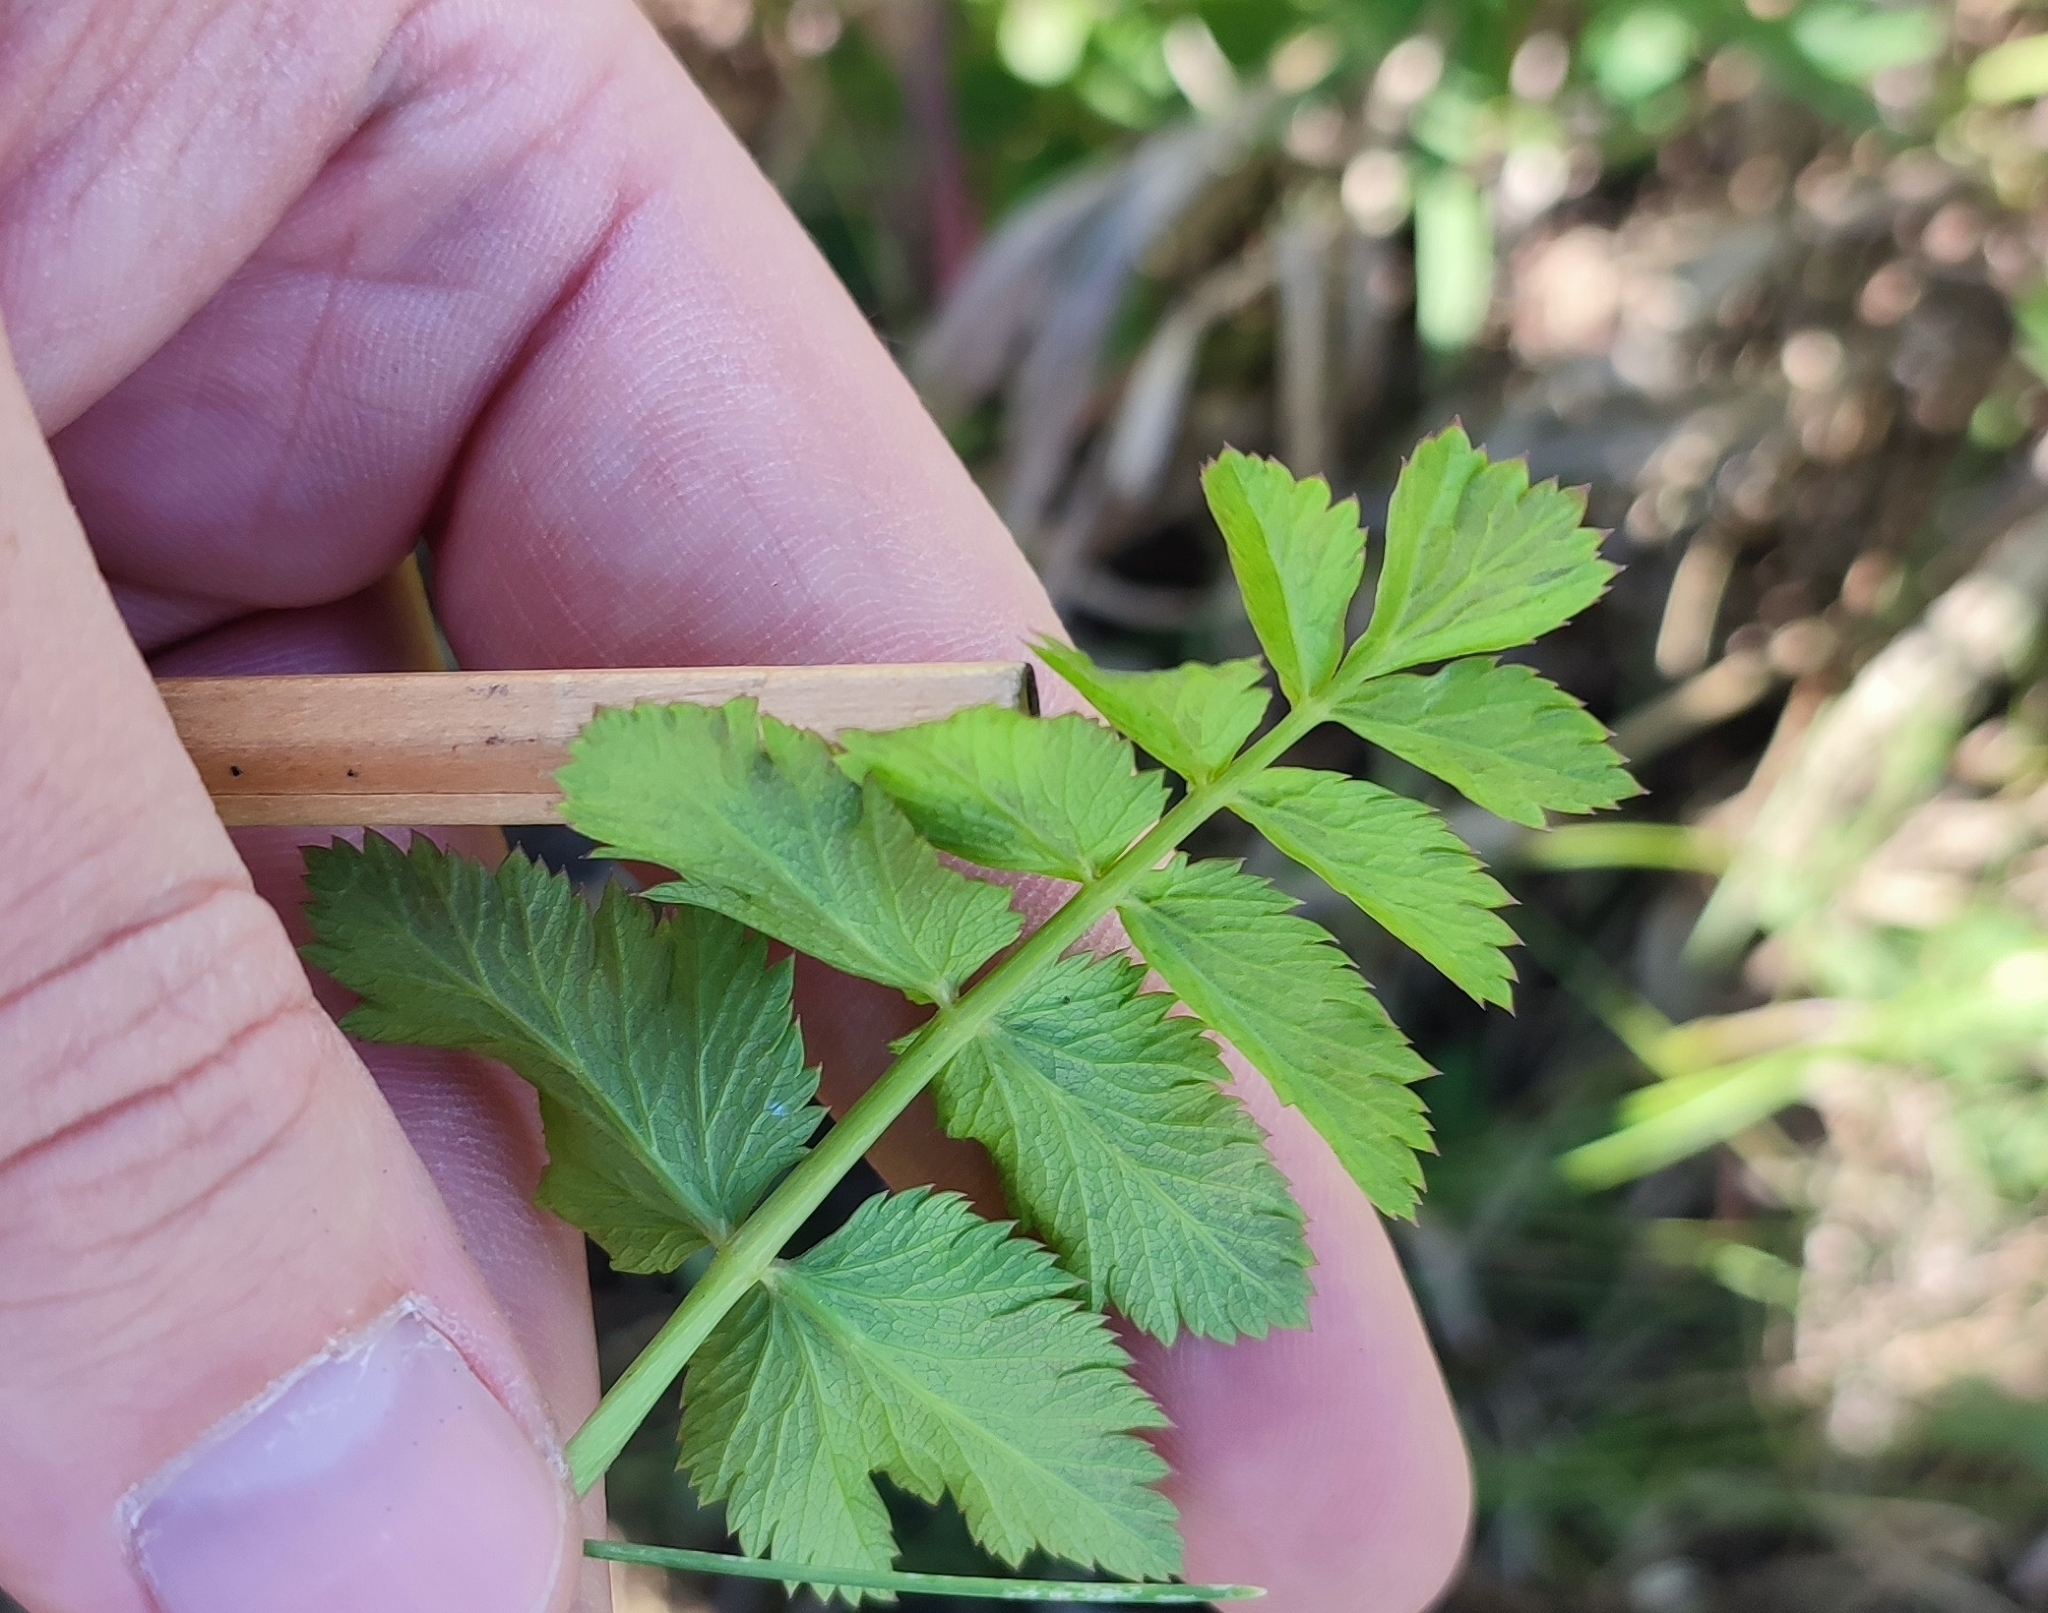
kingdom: Plantae
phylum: Tracheophyta
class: Magnoliopsida
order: Apiales
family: Apiaceae
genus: Pimpinella
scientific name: Pimpinella saxifraga
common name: Burnet-saxifrage
